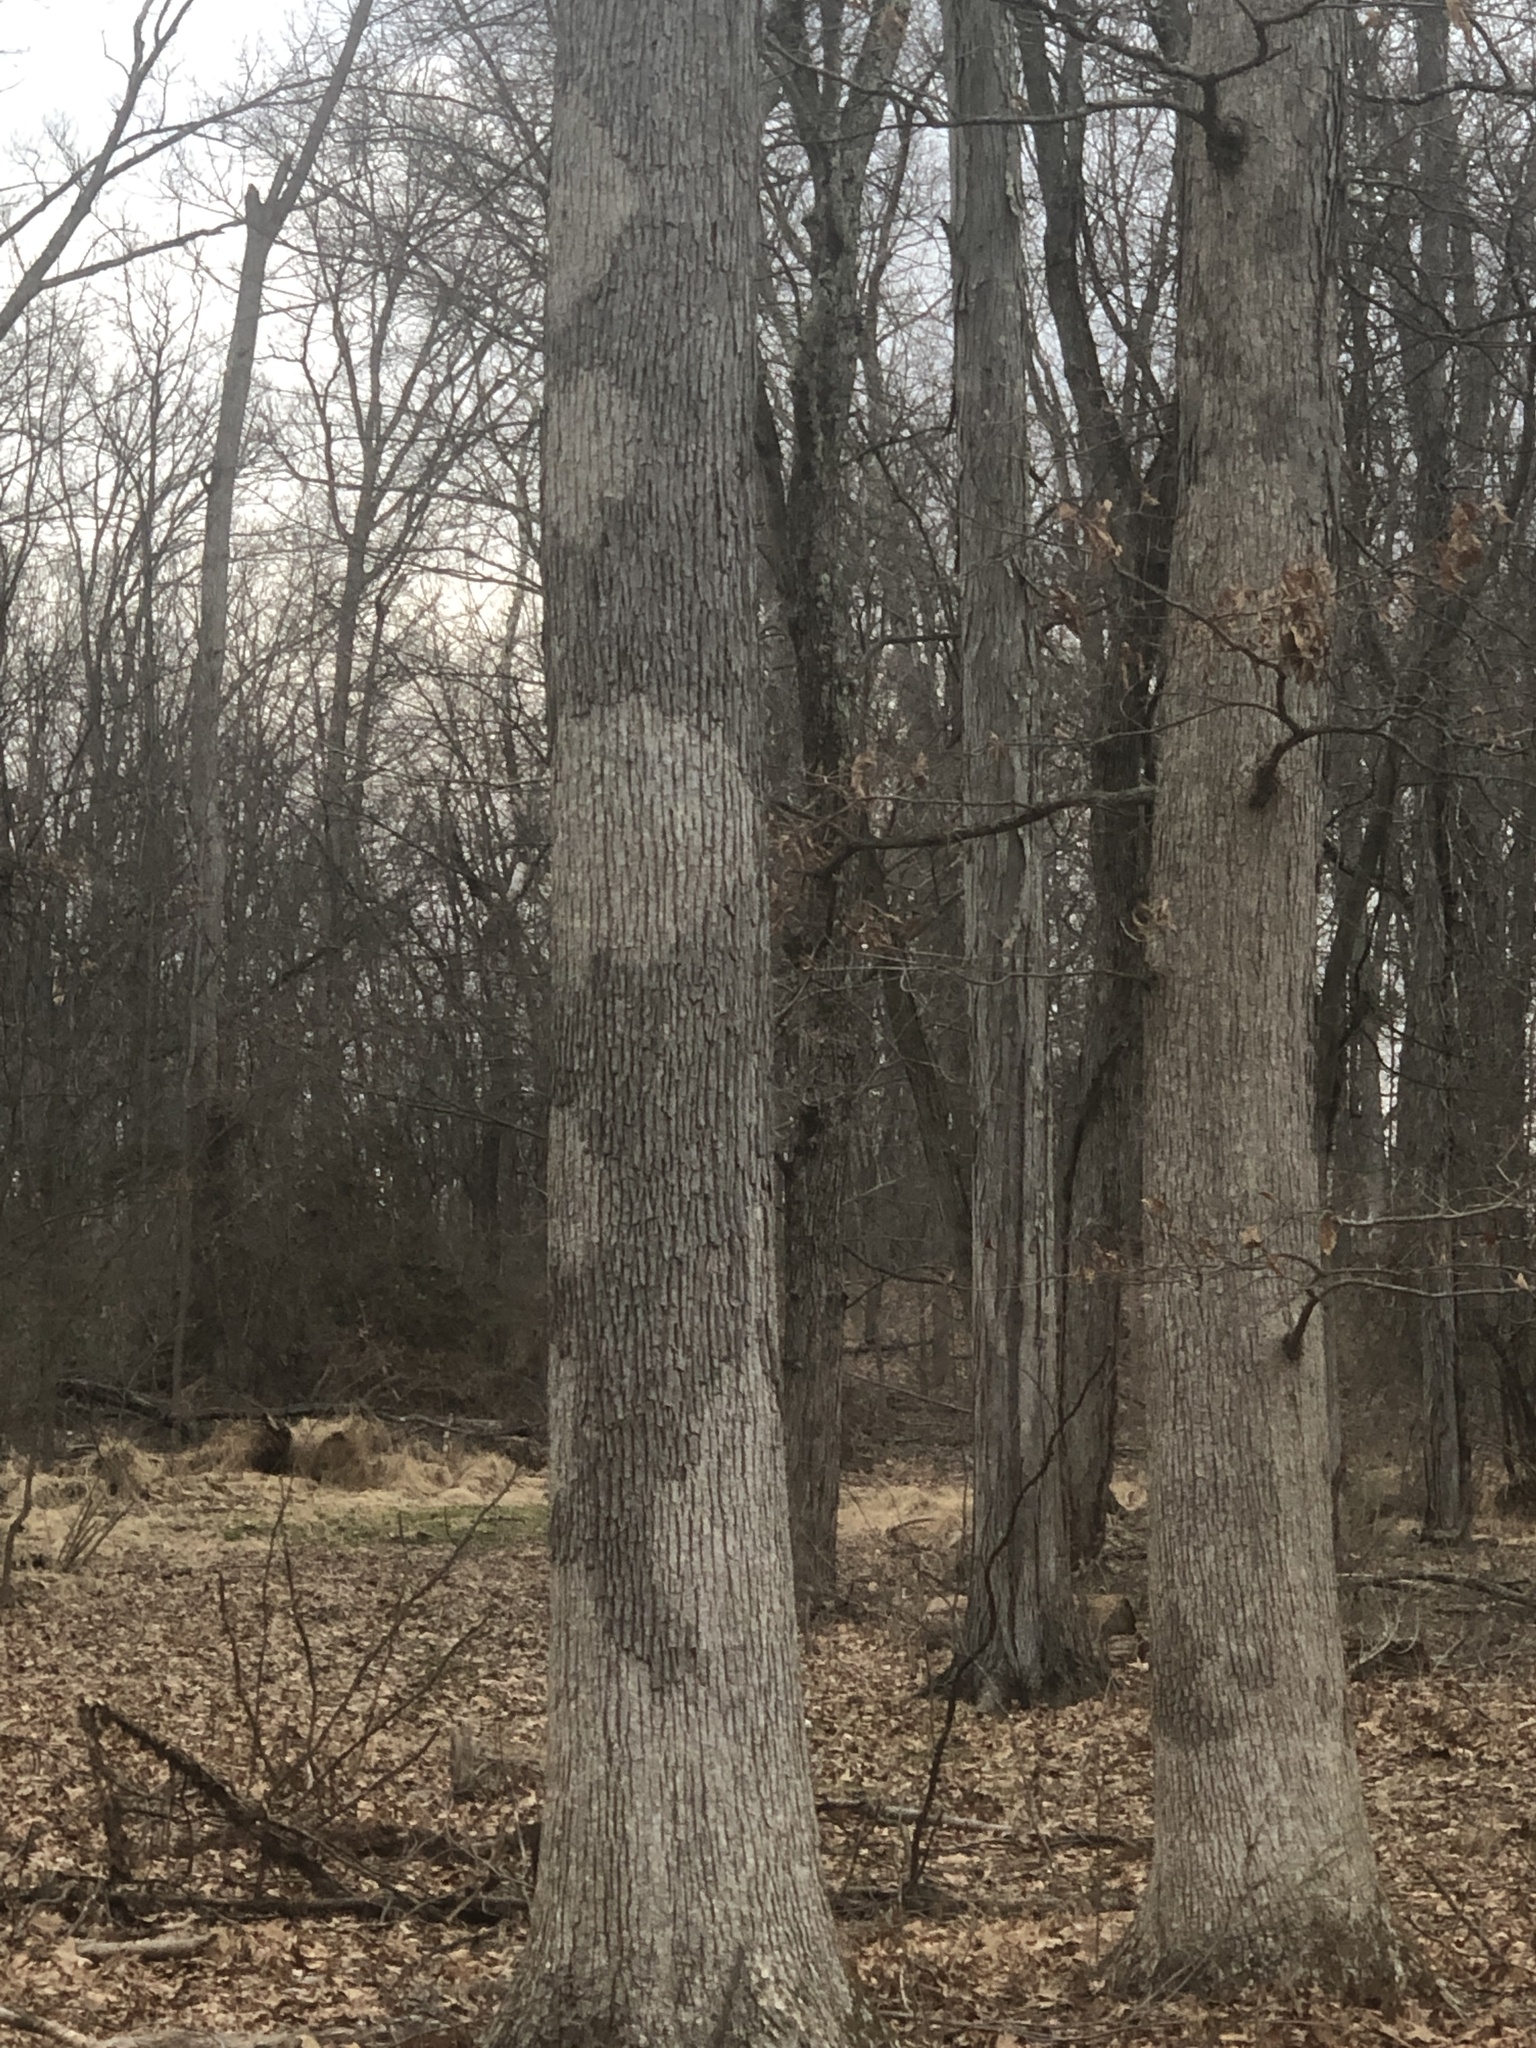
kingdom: Fungi
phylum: Basidiomycota
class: Agaricomycetes
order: Russulales
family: Stereaceae
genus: Acanthophysium
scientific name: Acanthophysium oakesii
